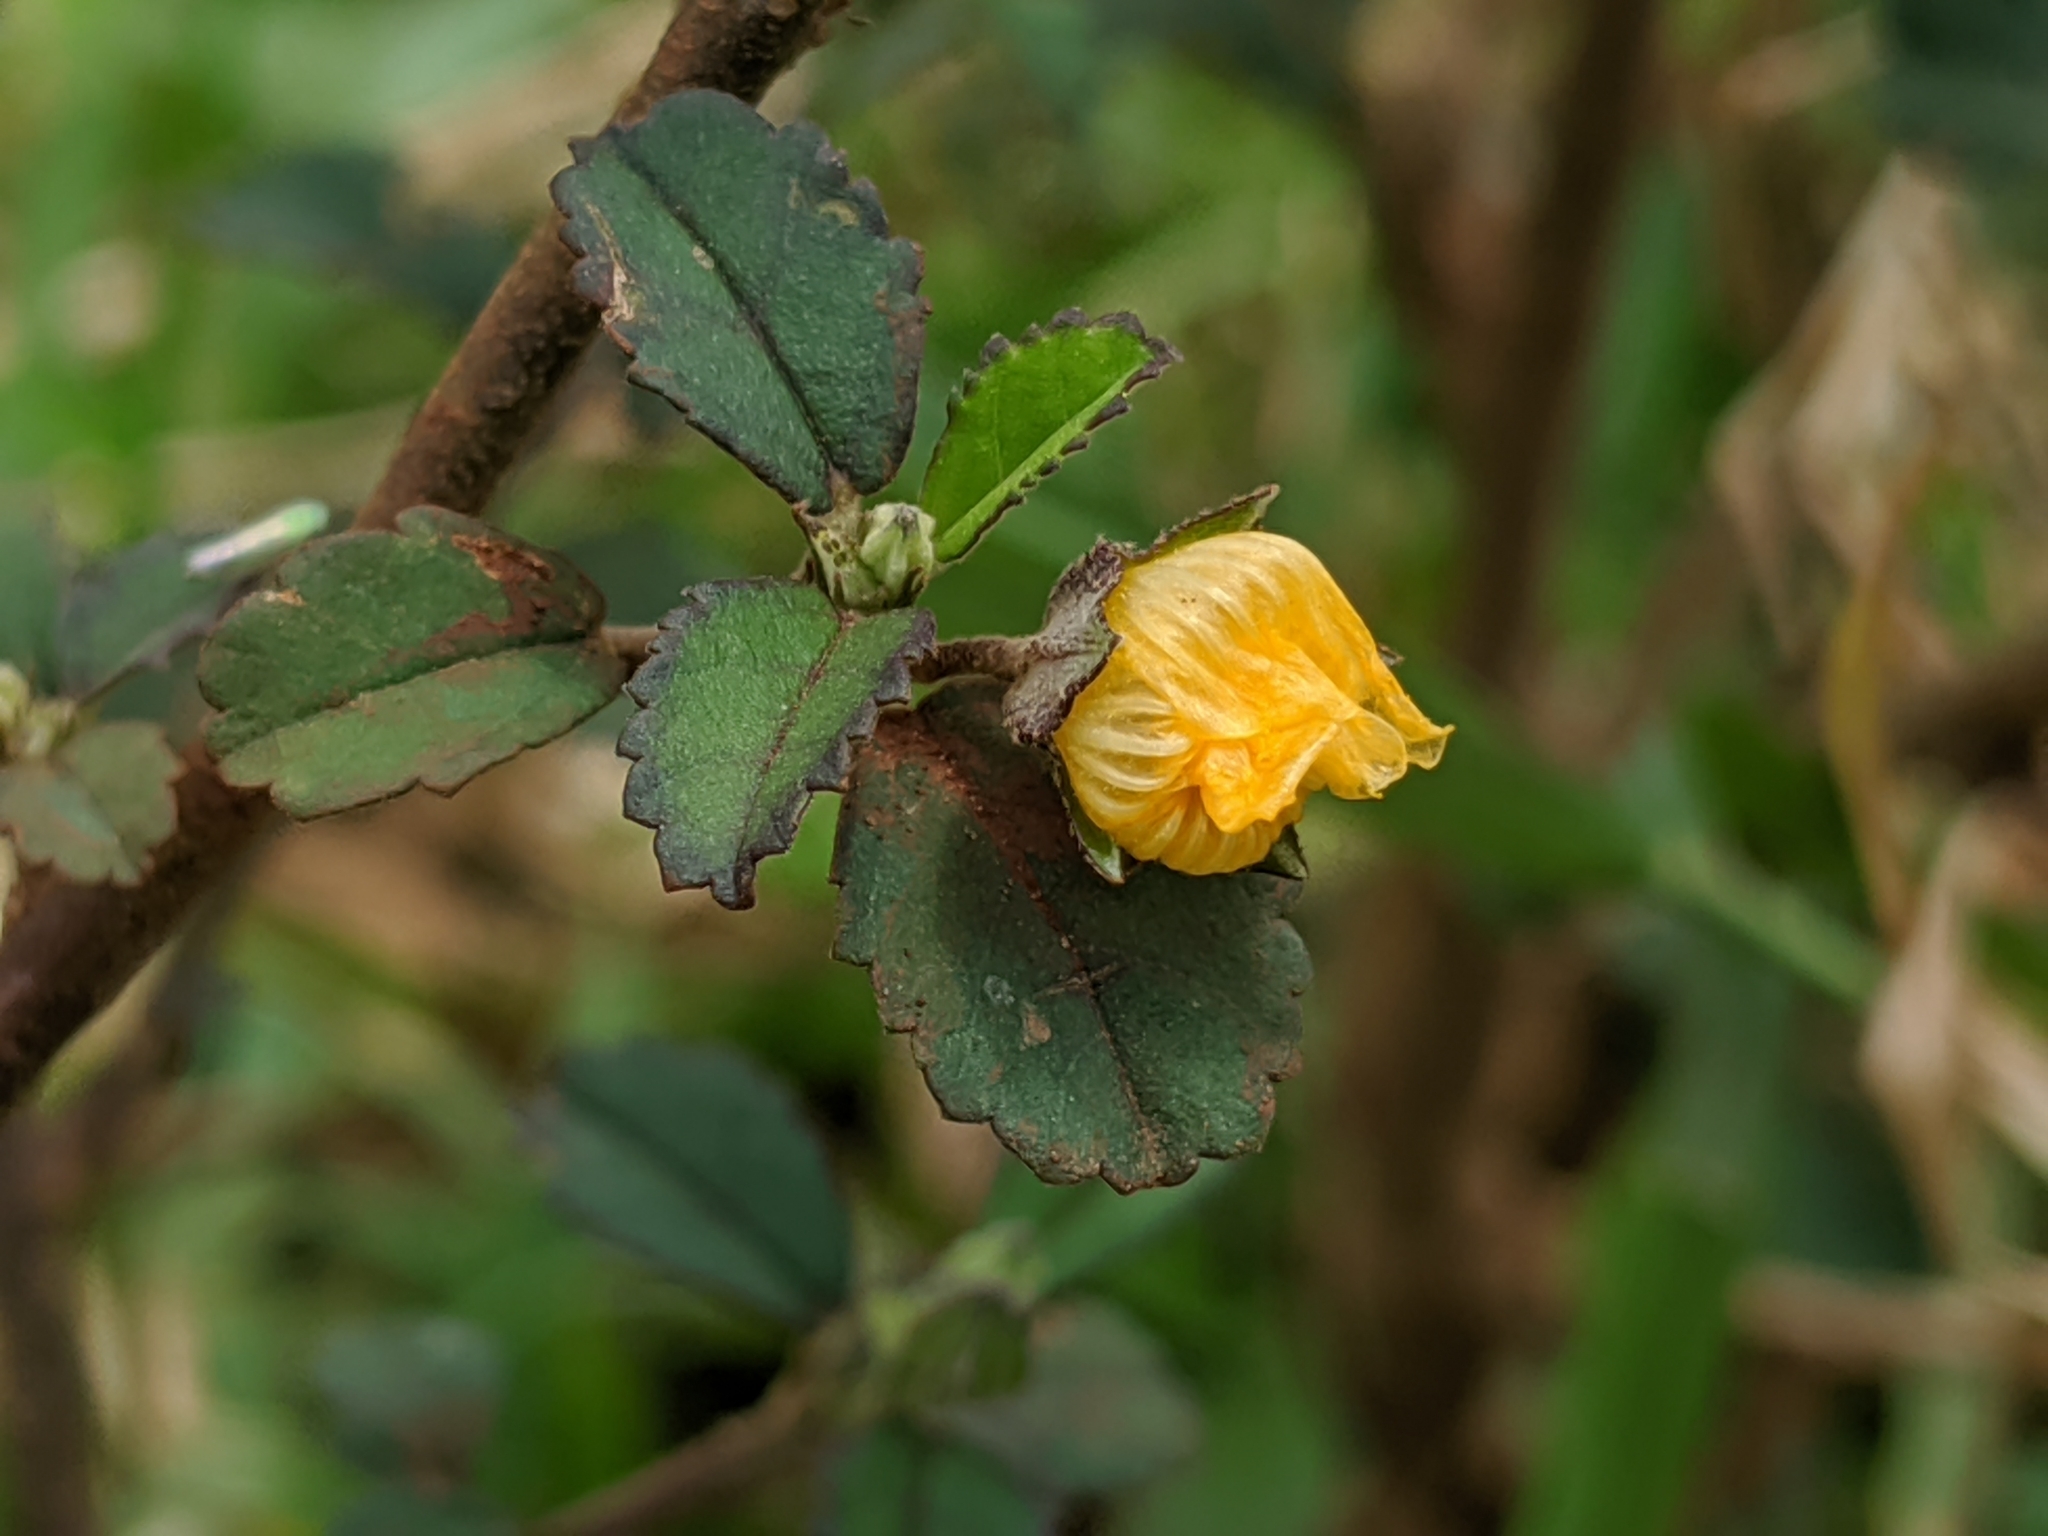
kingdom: Plantae
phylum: Tracheophyta
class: Magnoliopsida
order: Malvales
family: Malvaceae
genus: Sida
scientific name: Sida rhombifolia
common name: Queensland-hemp
